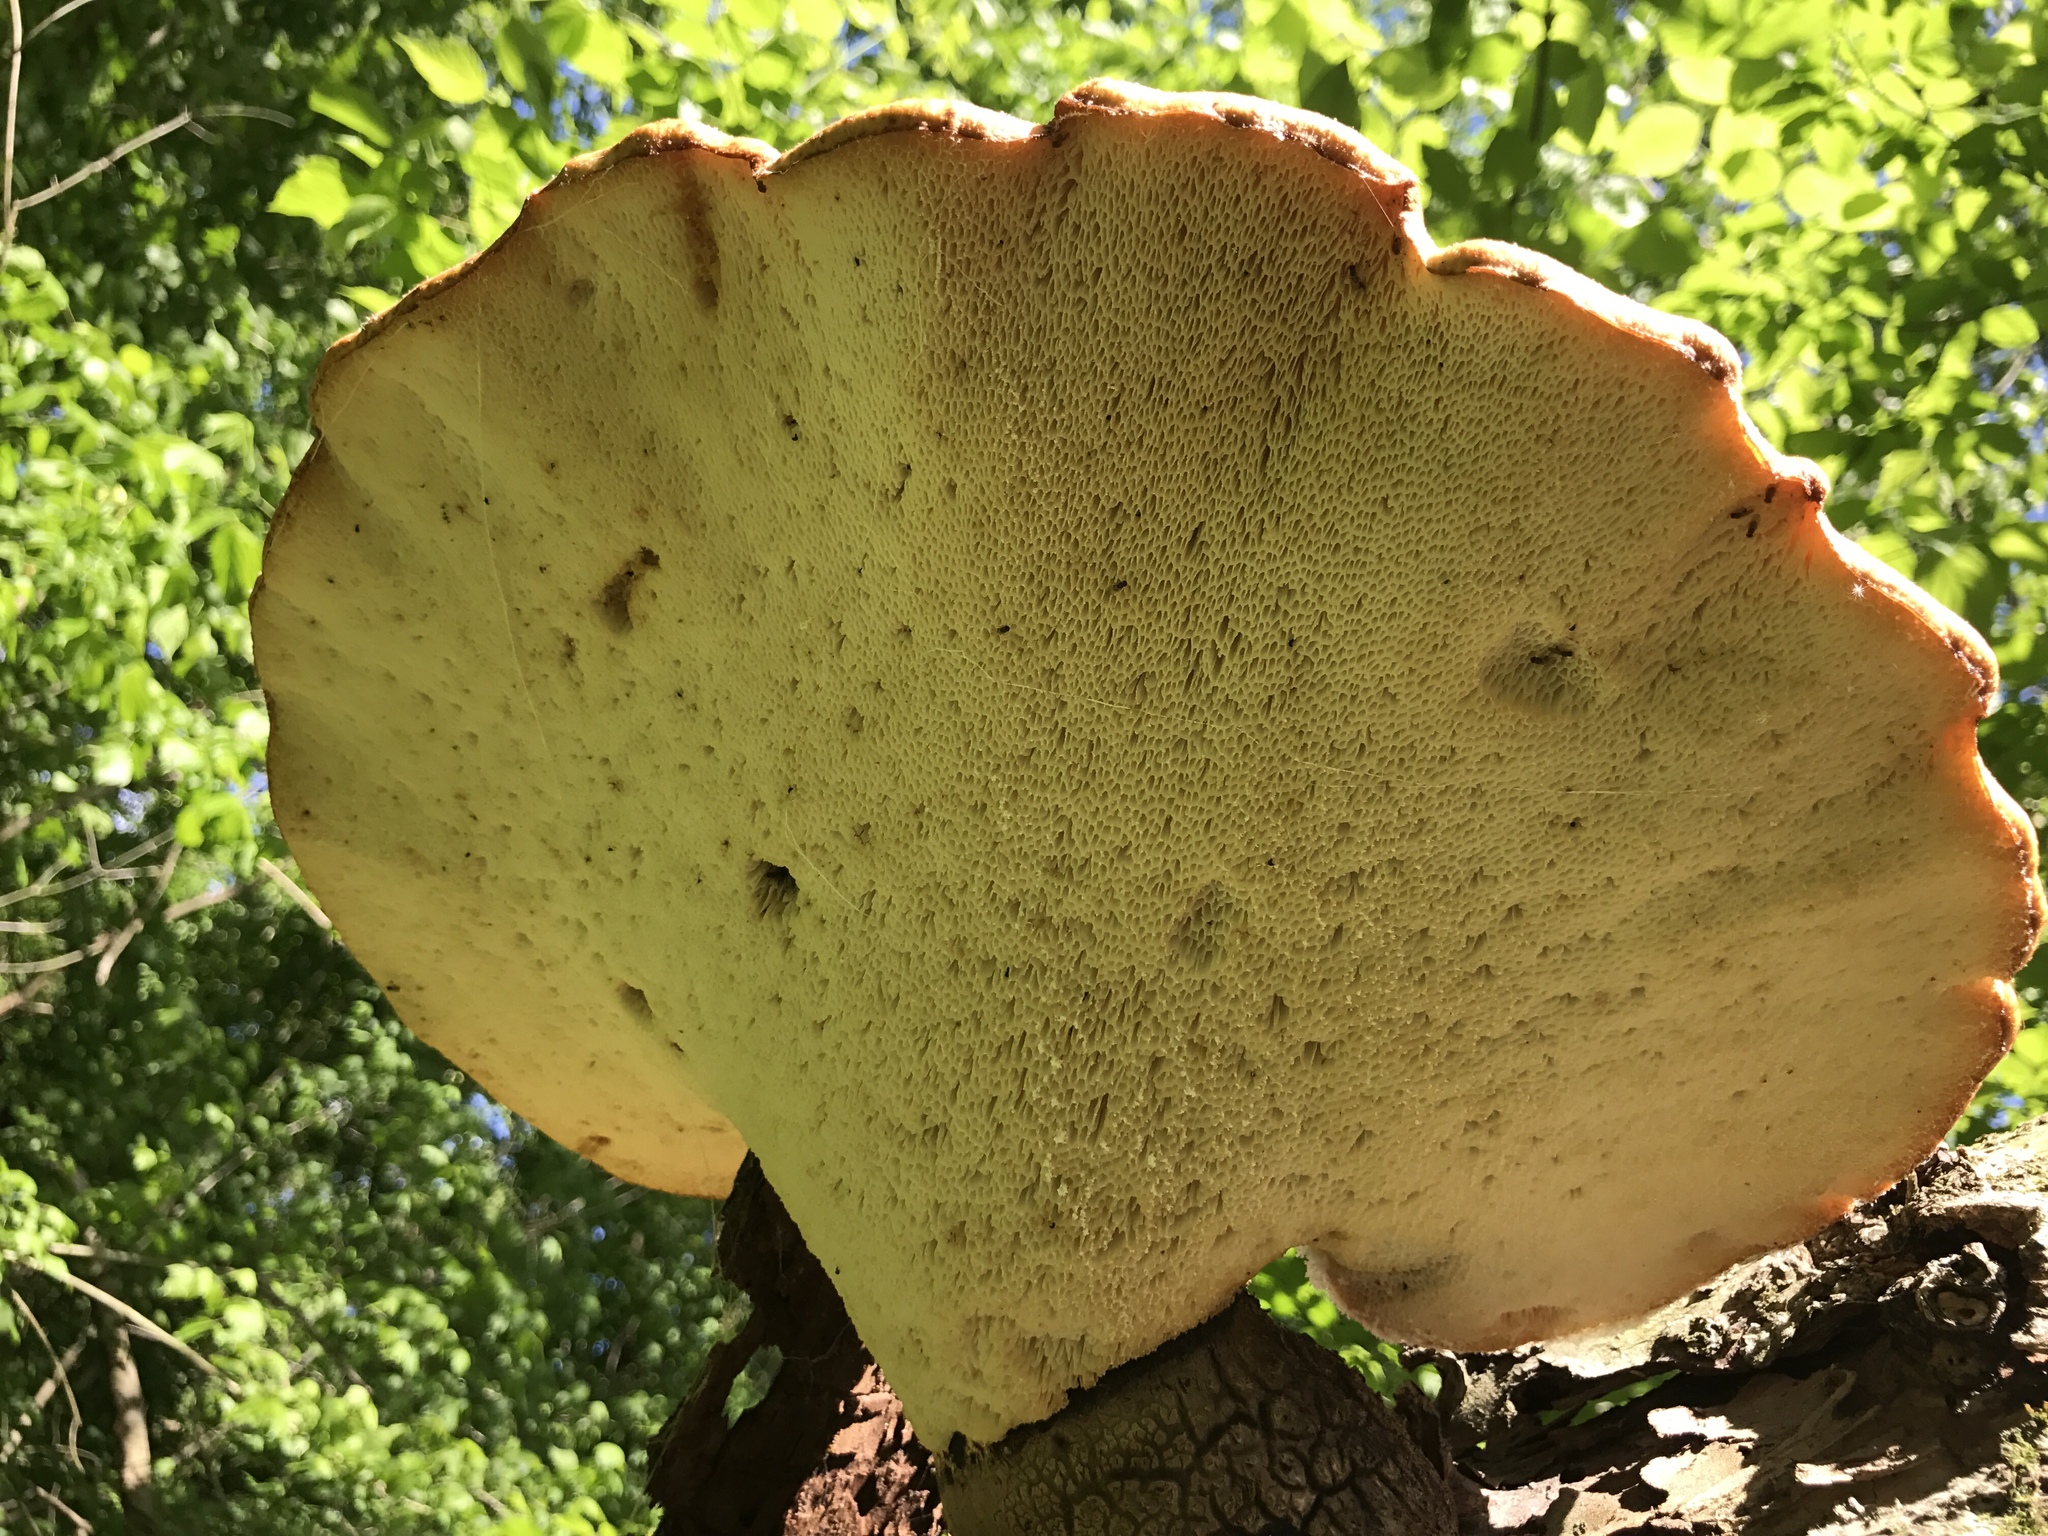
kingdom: Fungi
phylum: Basidiomycota
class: Agaricomycetes
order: Polyporales
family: Polyporaceae
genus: Cerioporus
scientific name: Cerioporus squamosus
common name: Dryad's saddle
